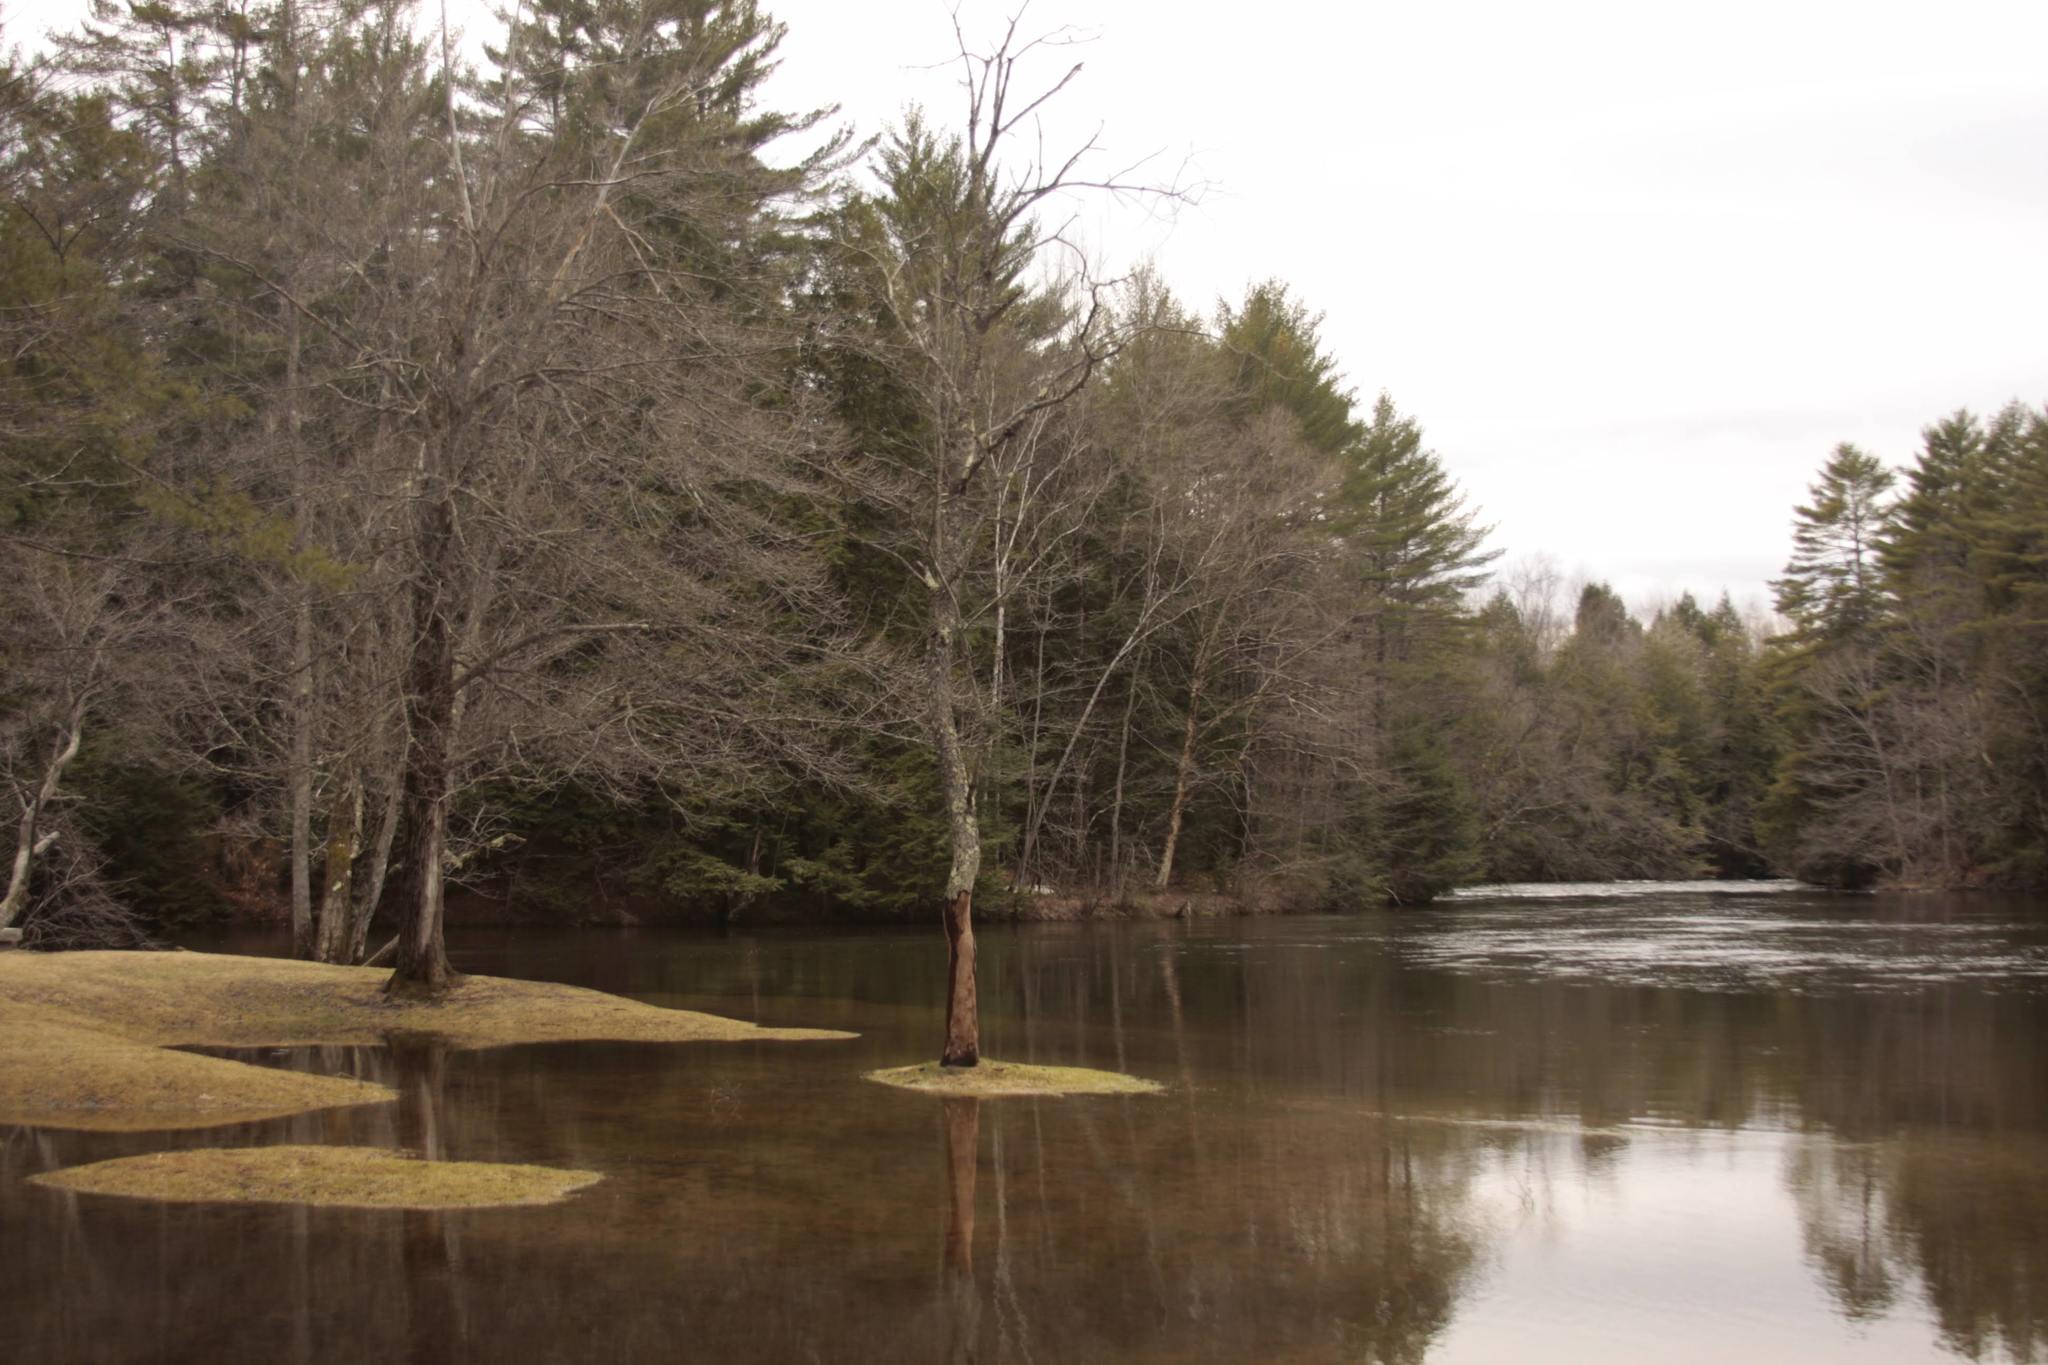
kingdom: Plantae
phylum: Tracheophyta
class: Pinopsida
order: Pinales
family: Pinaceae
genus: Pinus
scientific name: Pinus strobus
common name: Weymouth pine
